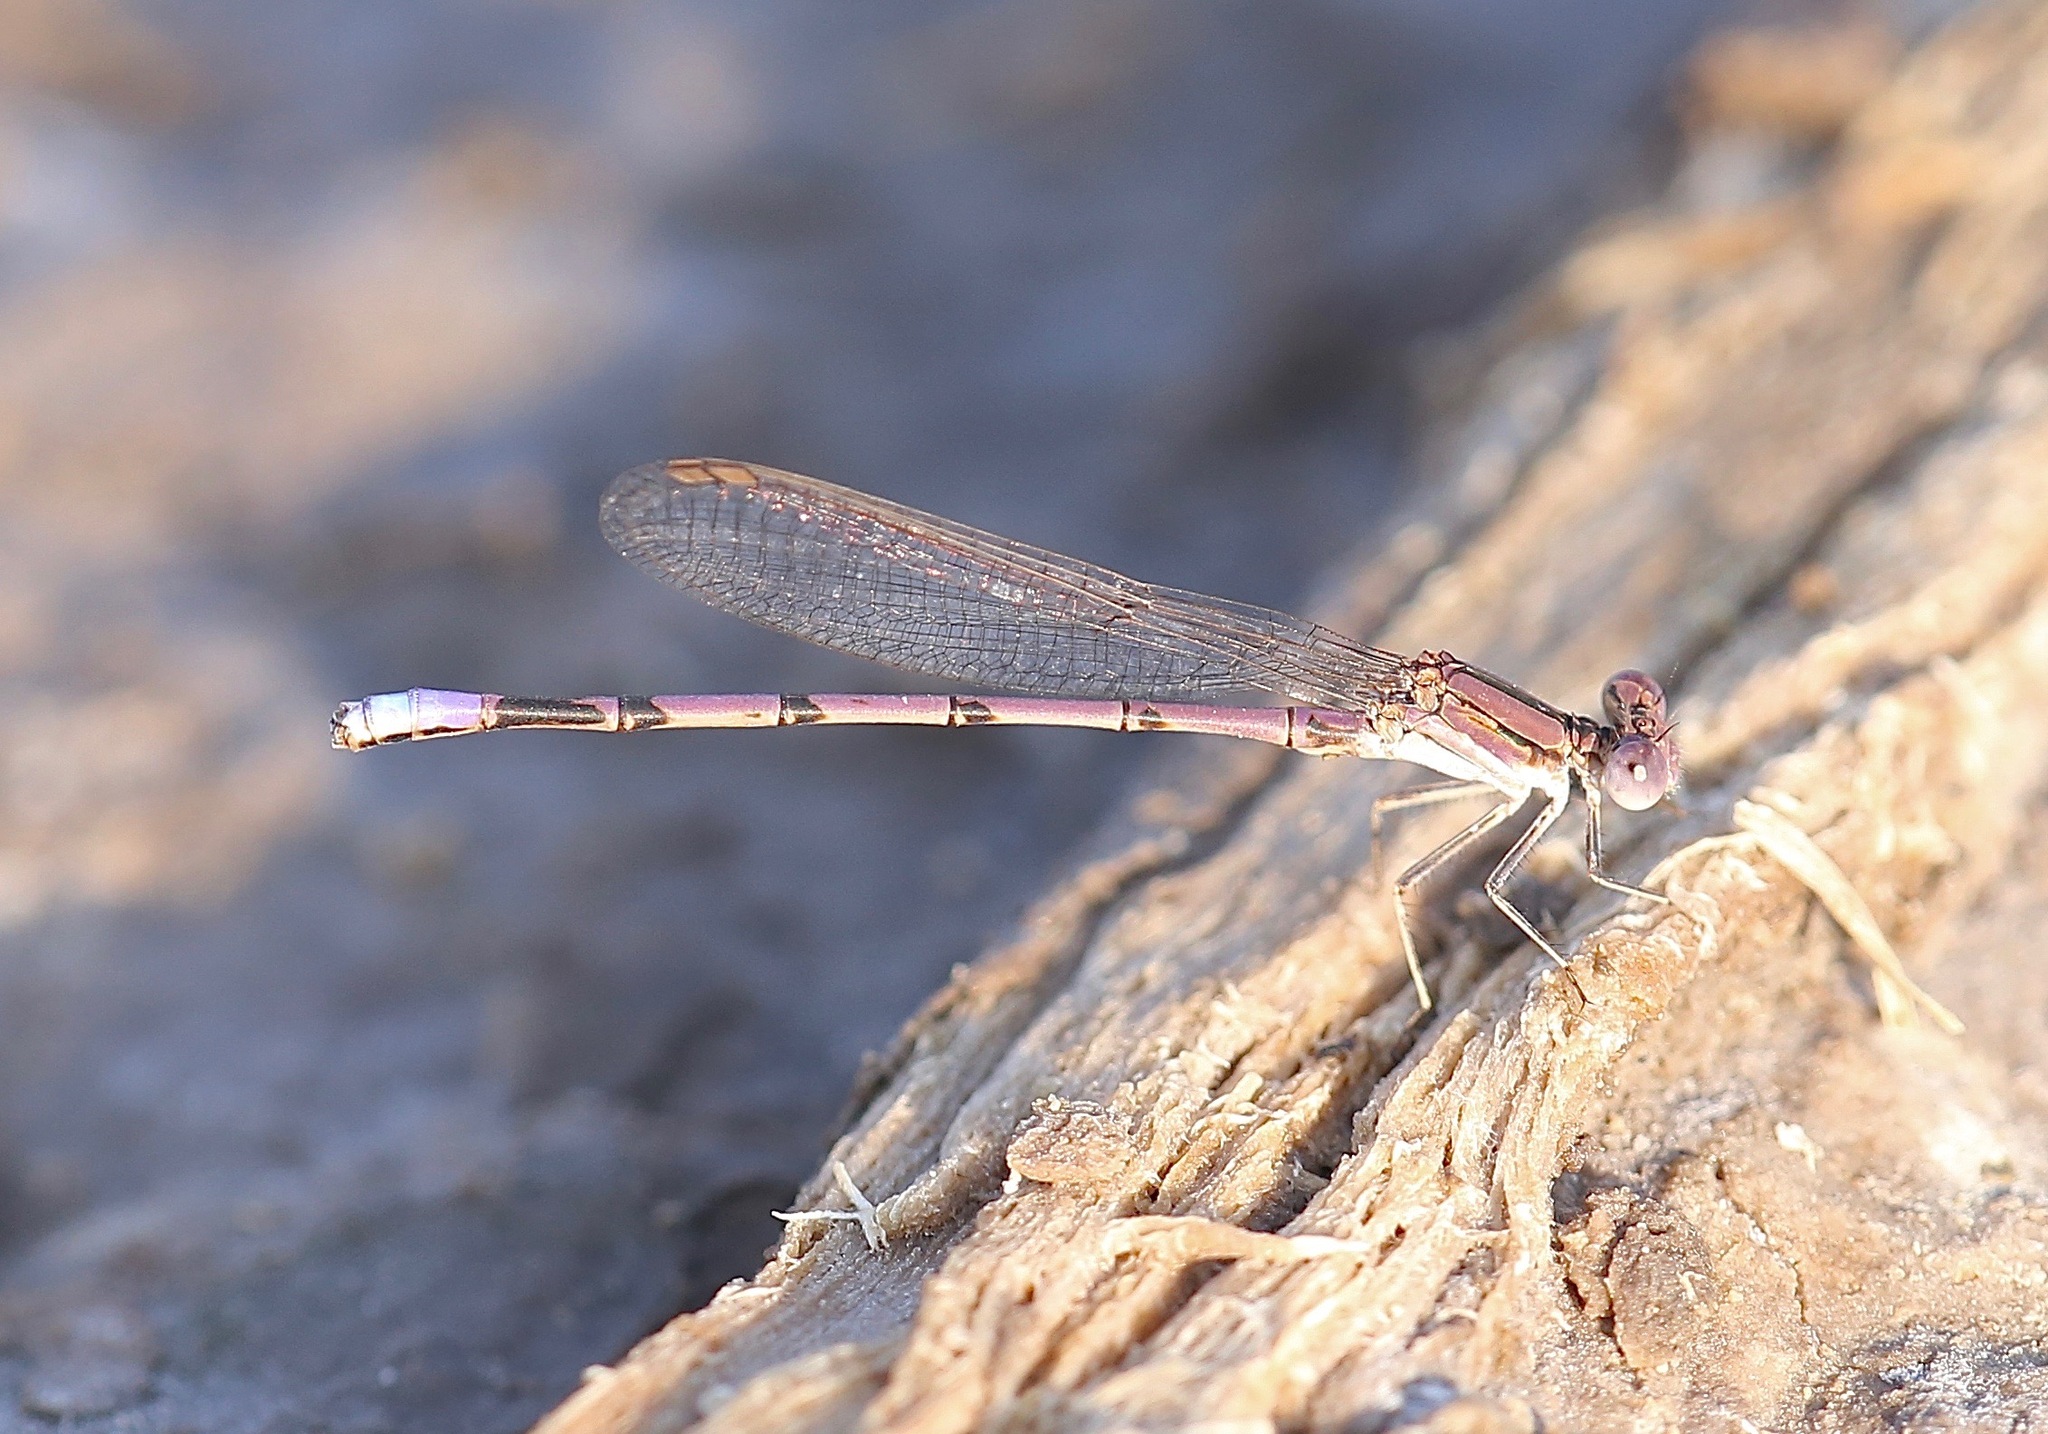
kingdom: Animalia
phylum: Arthropoda
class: Insecta
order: Odonata
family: Coenagrionidae
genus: Argia
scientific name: Argia fumipennis
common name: Variable dancer
